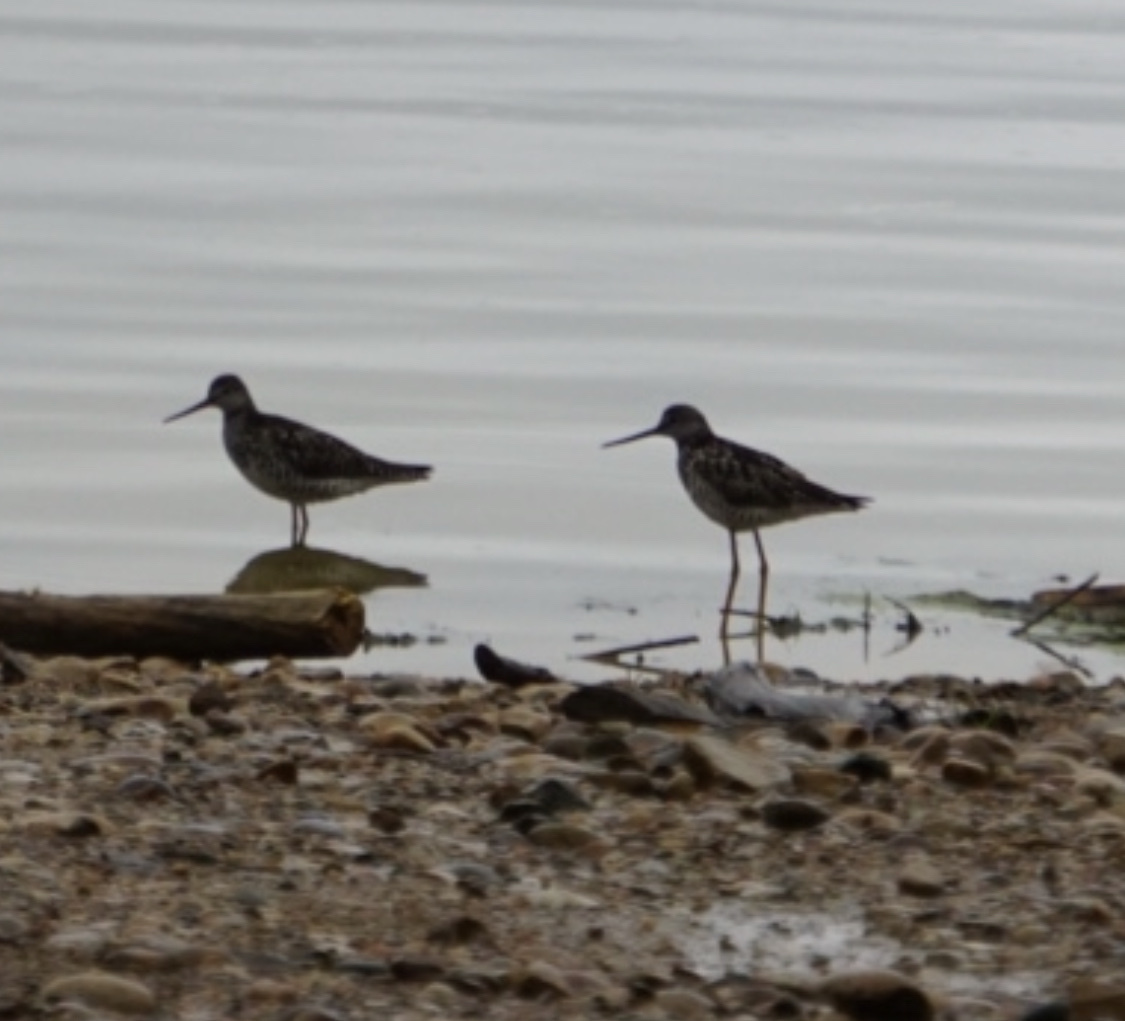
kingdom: Animalia
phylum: Chordata
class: Aves
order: Charadriiformes
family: Scolopacidae
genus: Tringa
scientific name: Tringa melanoleuca
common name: Greater yellowlegs
